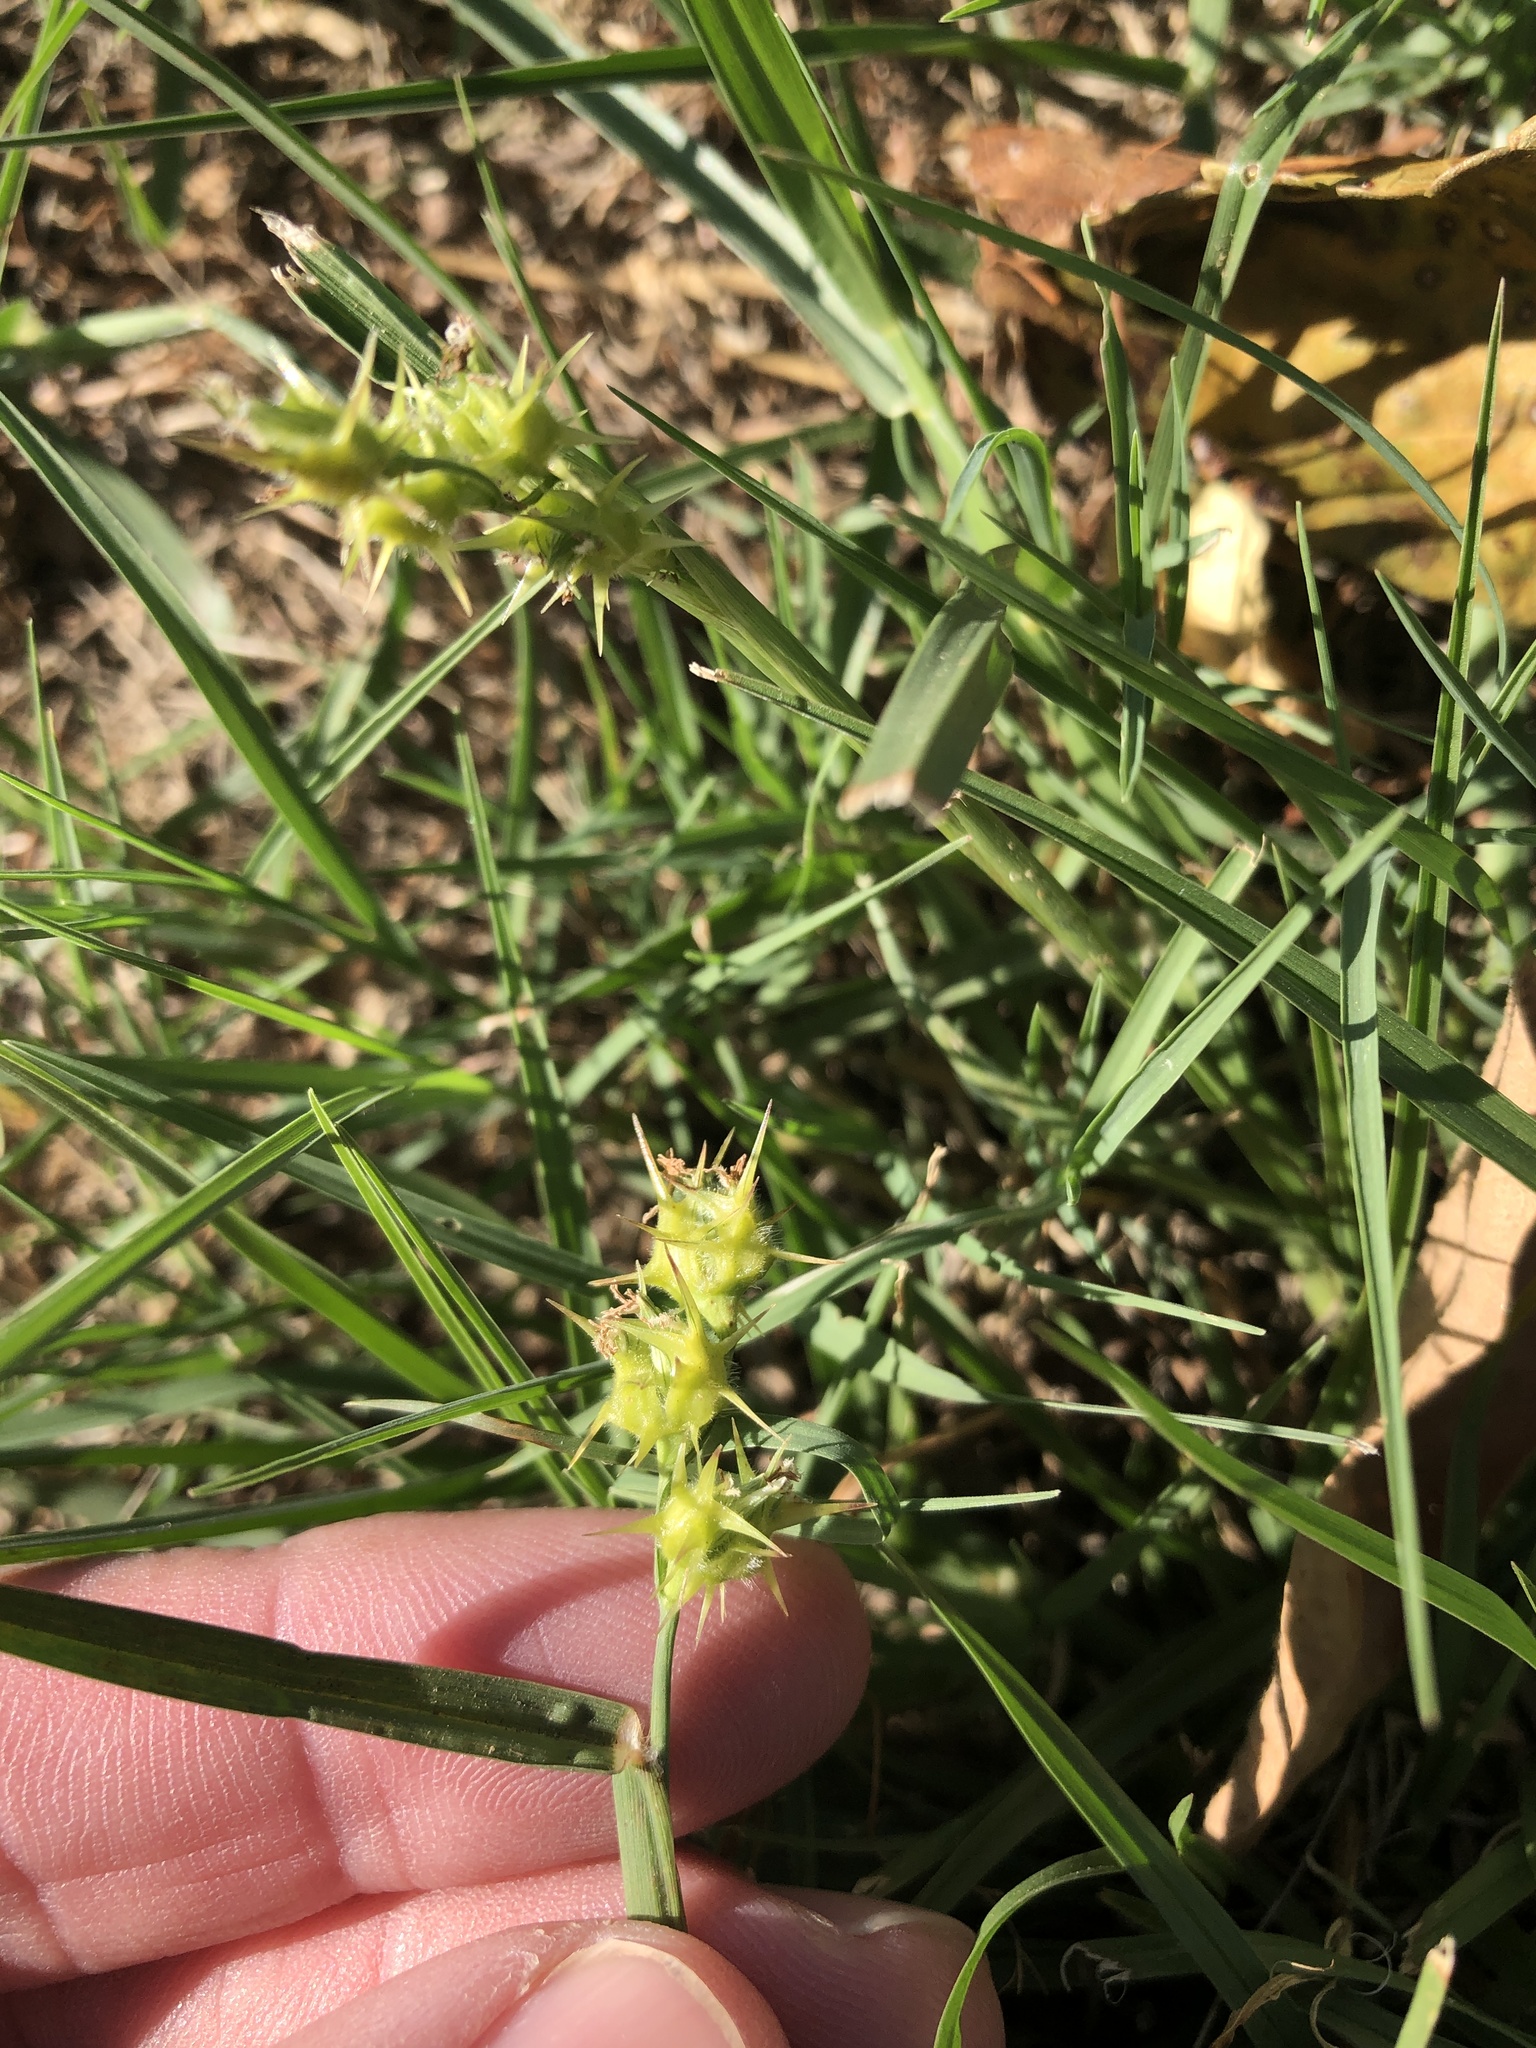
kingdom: Plantae
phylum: Tracheophyta
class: Liliopsida
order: Poales
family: Poaceae
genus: Cenchrus
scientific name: Cenchrus spinifex
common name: Coast sandbur
